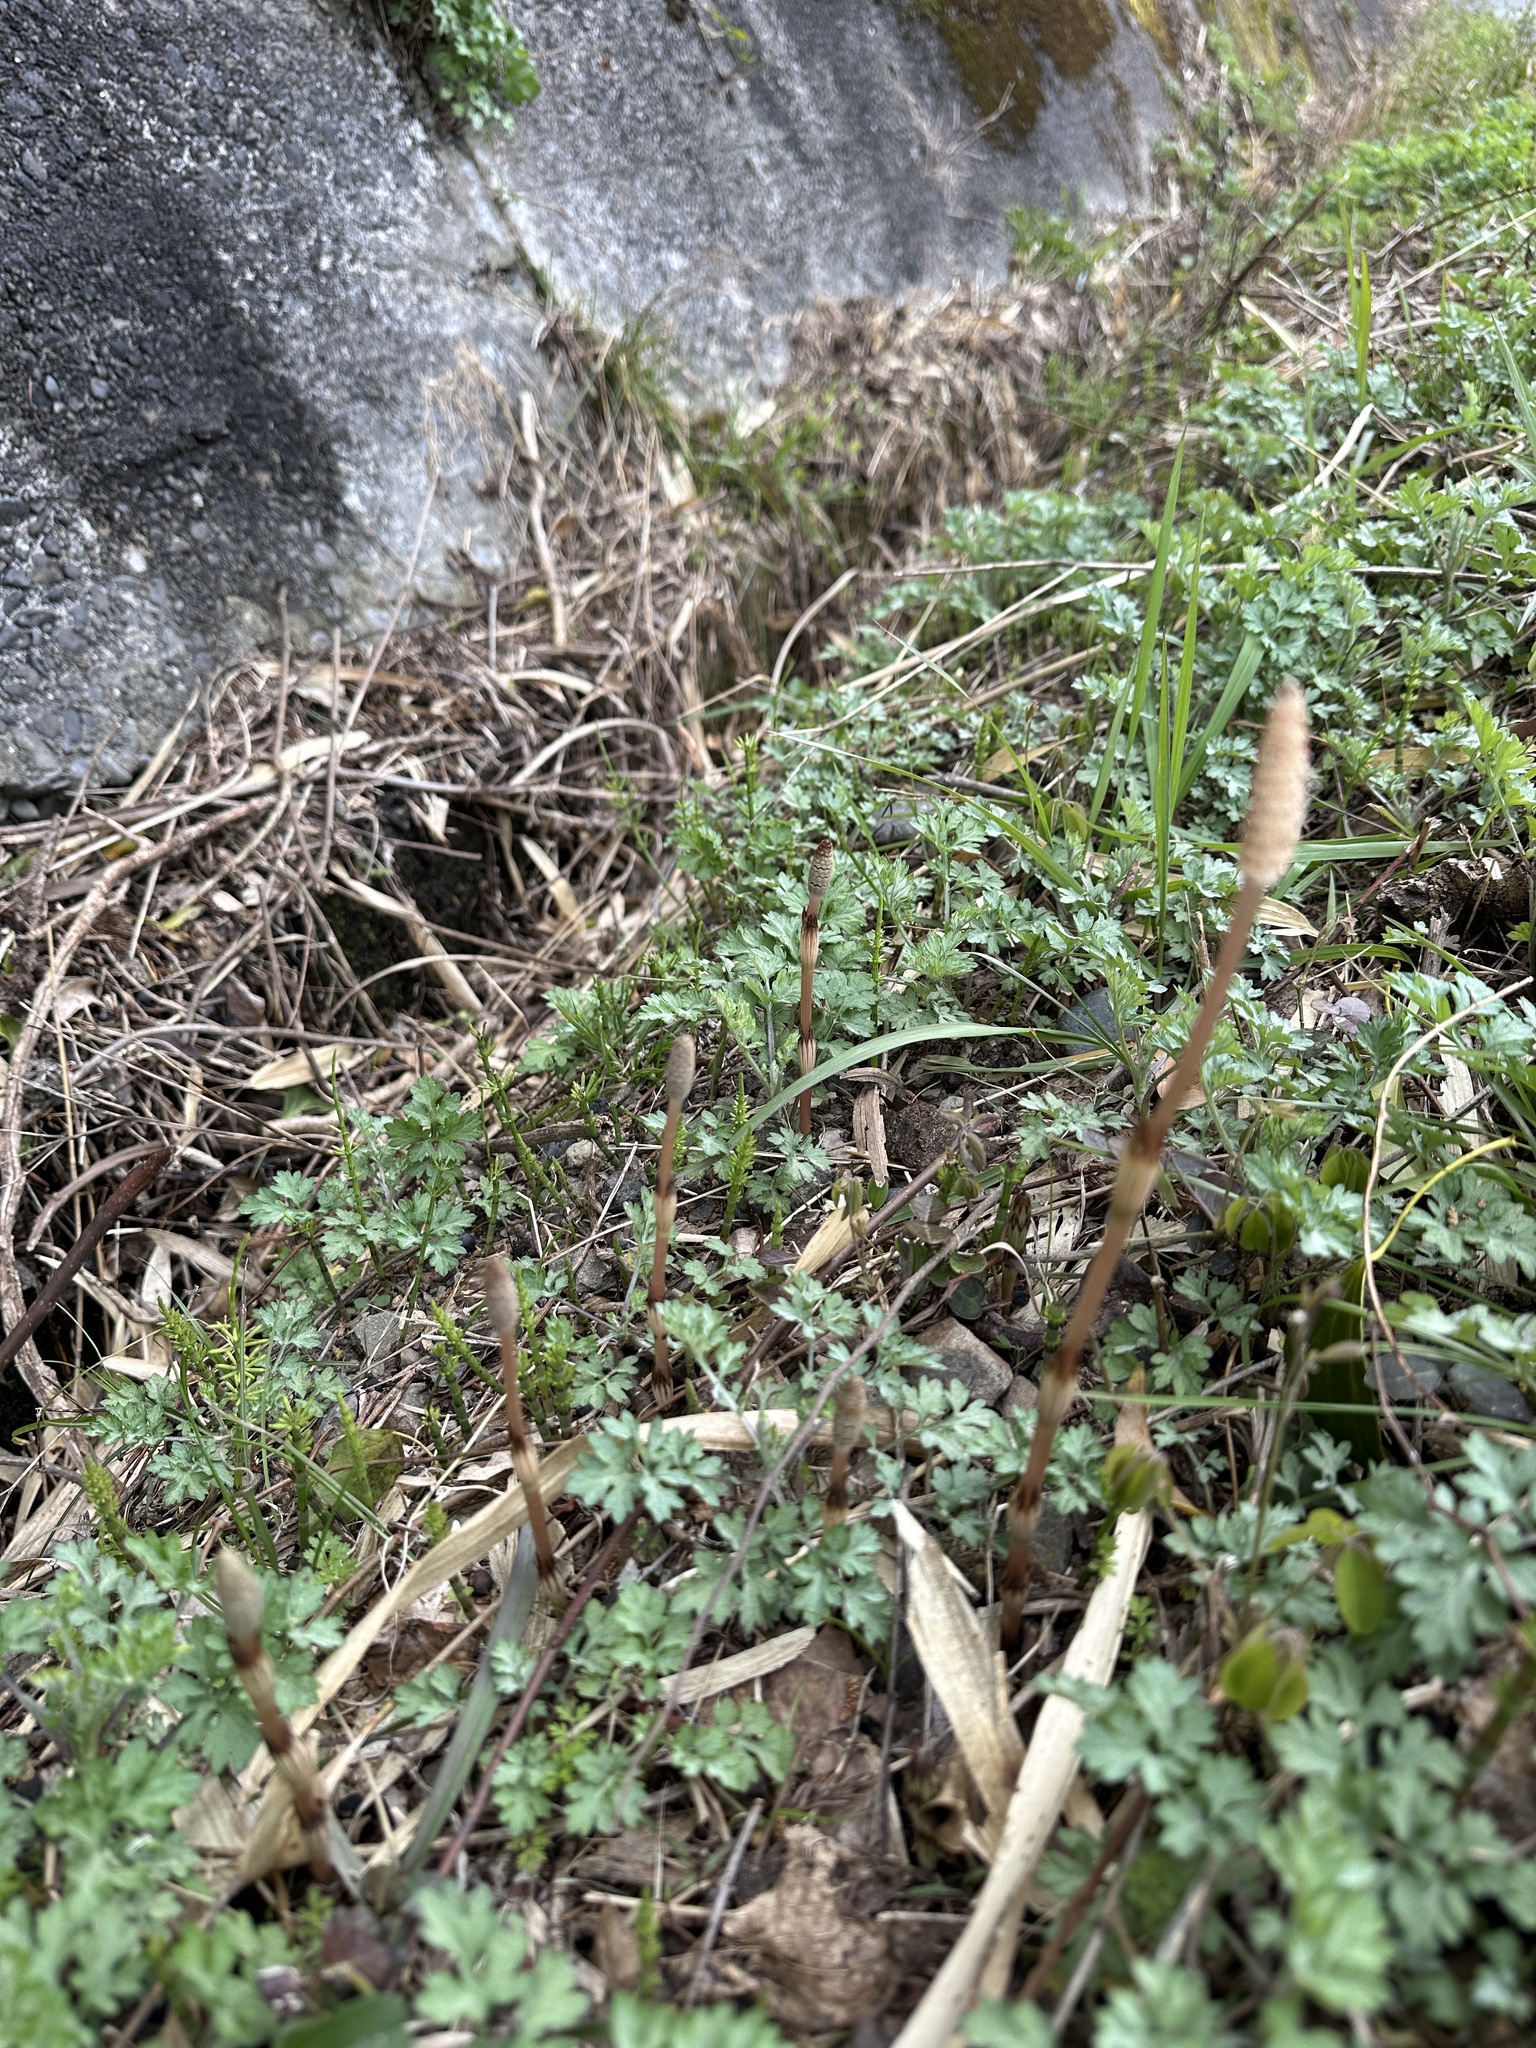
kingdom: Plantae
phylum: Tracheophyta
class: Polypodiopsida
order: Equisetales
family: Equisetaceae
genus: Equisetum
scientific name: Equisetum arvense
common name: Field horsetail
